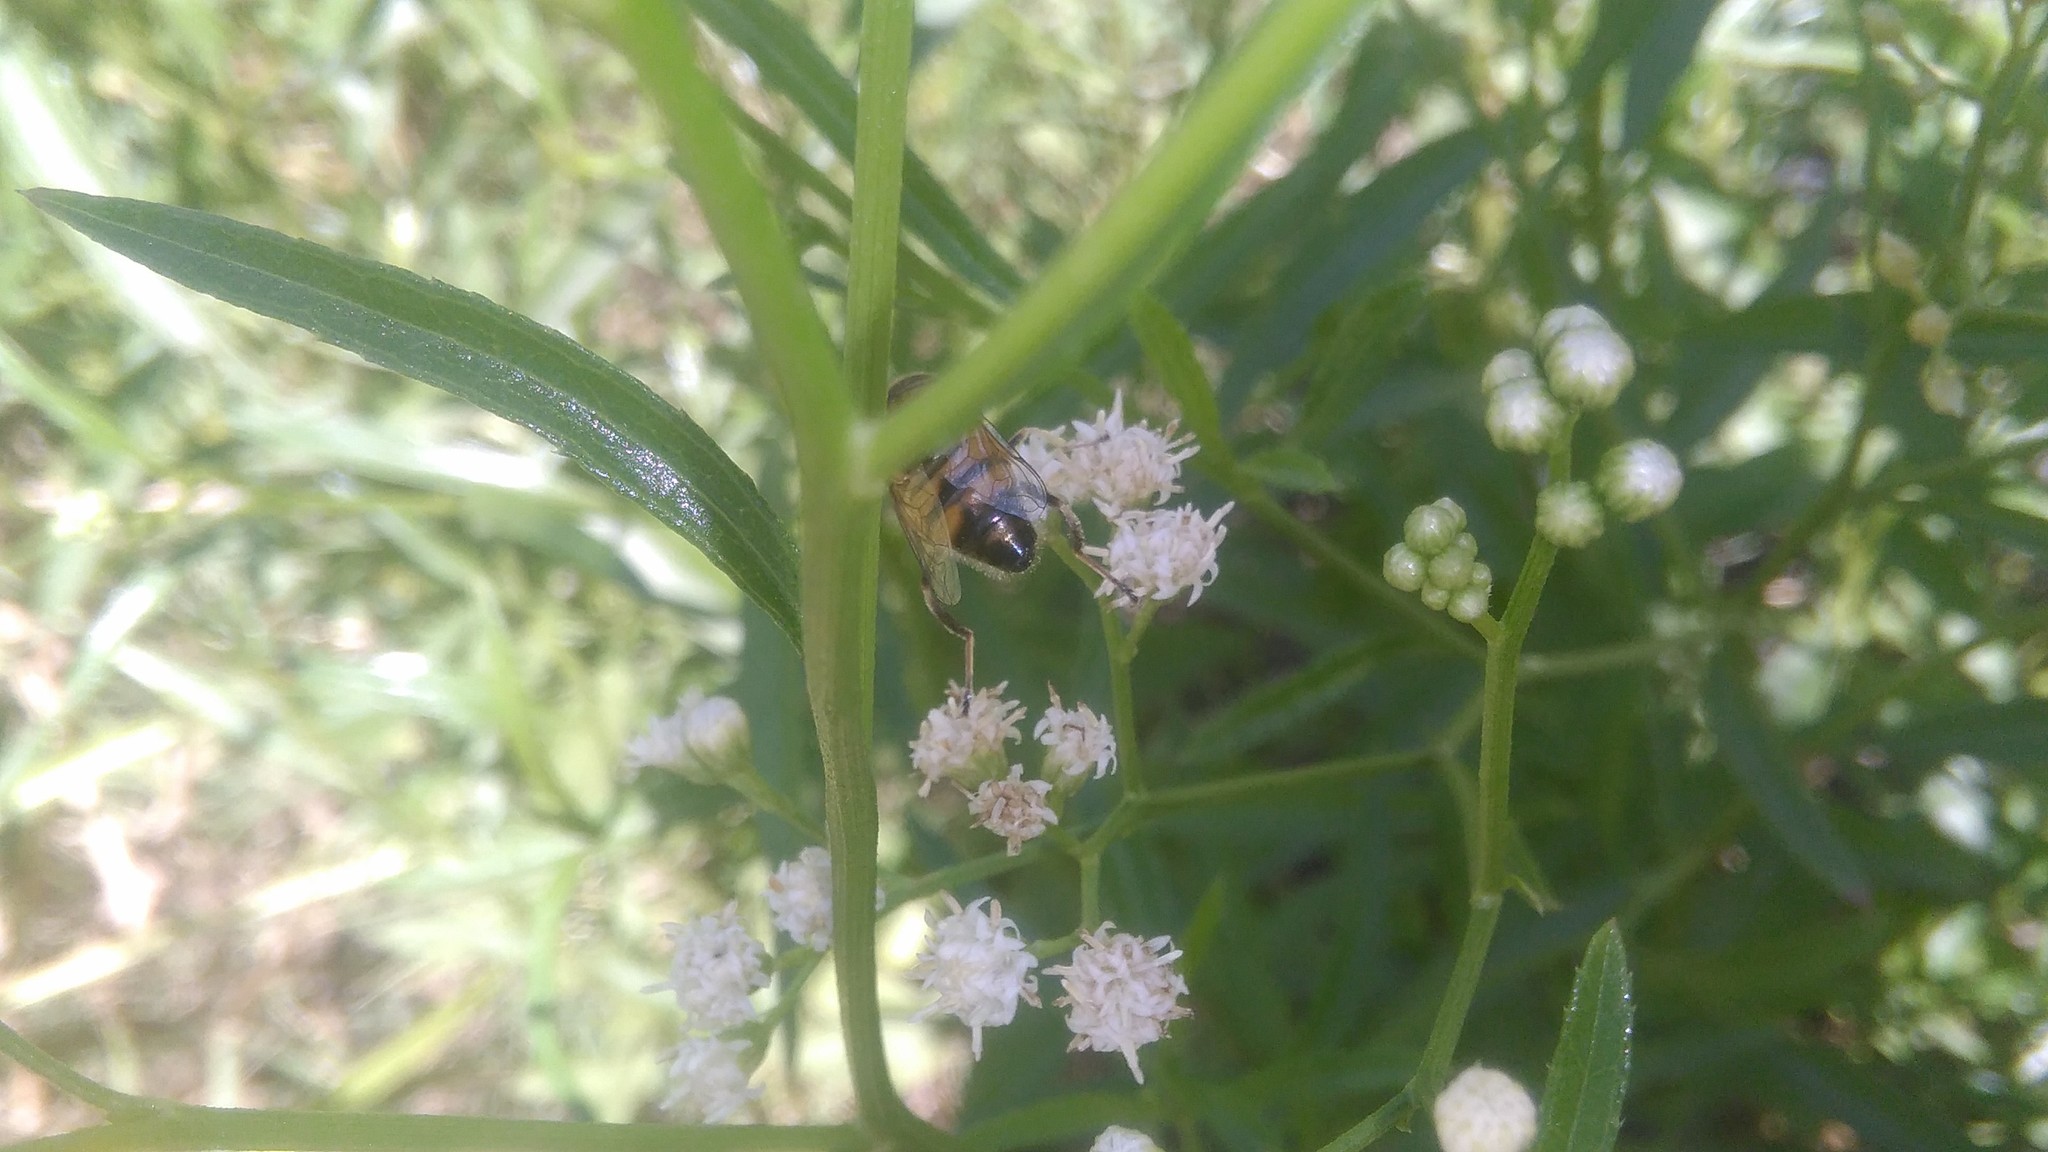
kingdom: Plantae
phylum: Tracheophyta
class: Magnoliopsida
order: Asterales
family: Asteraceae
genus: Baccharis
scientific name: Baccharis glutinosa
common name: Saltmarsh baccharis
